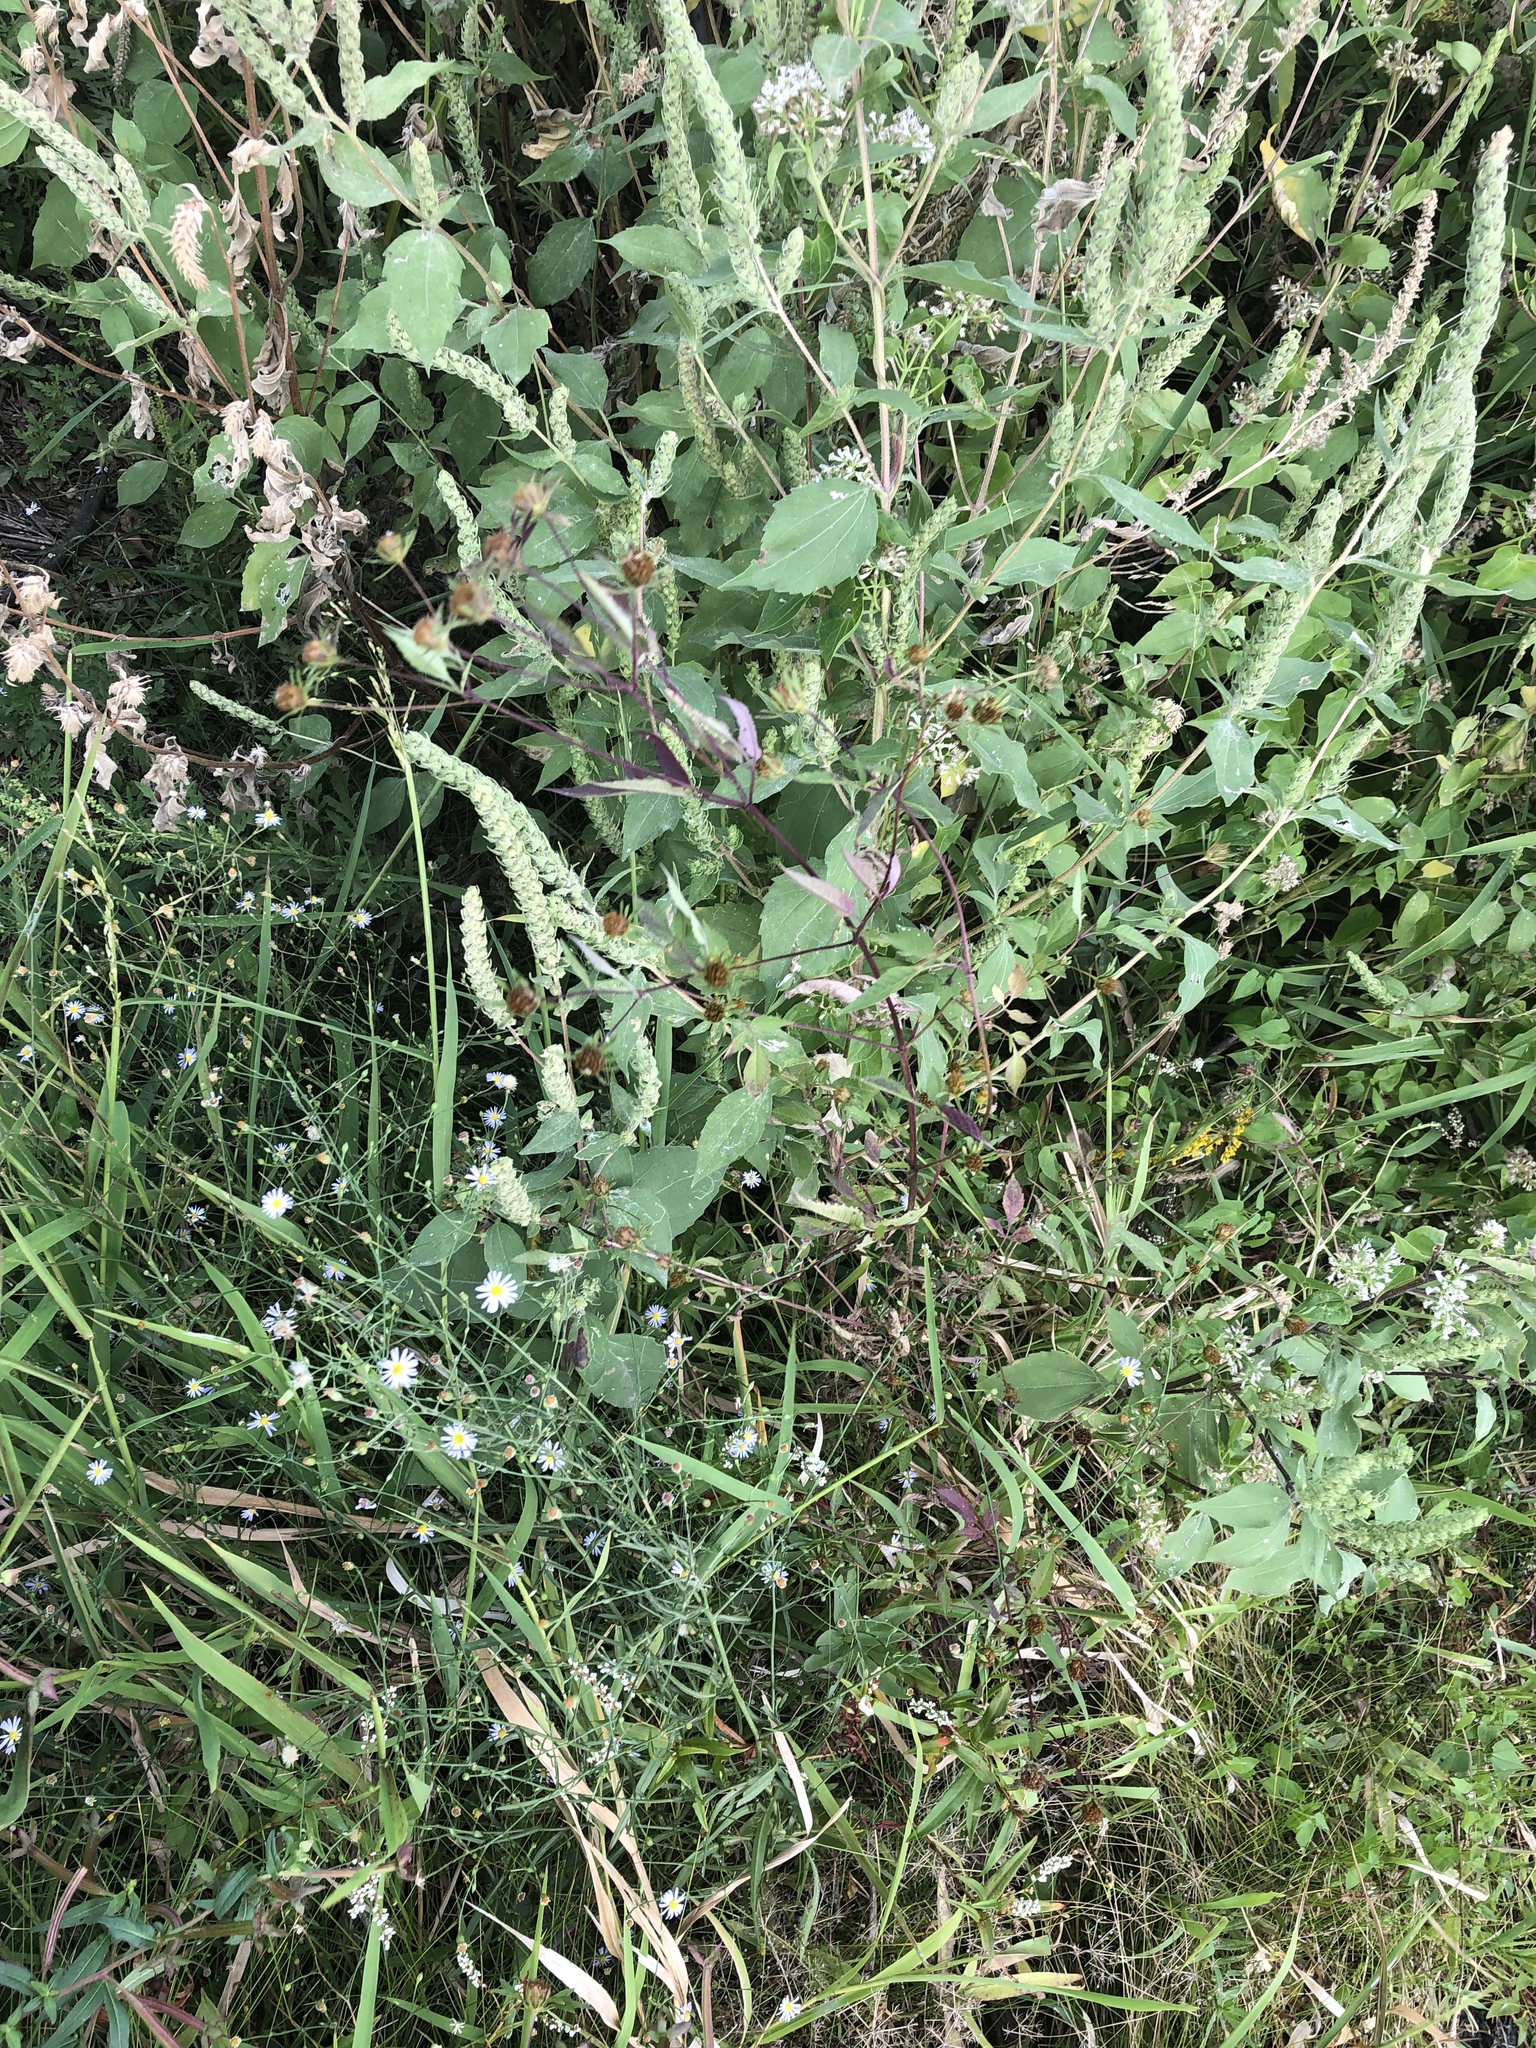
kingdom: Plantae
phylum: Tracheophyta
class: Magnoliopsida
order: Asterales
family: Asteraceae
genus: Bidens
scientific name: Bidens frondosa
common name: Beggarticks
